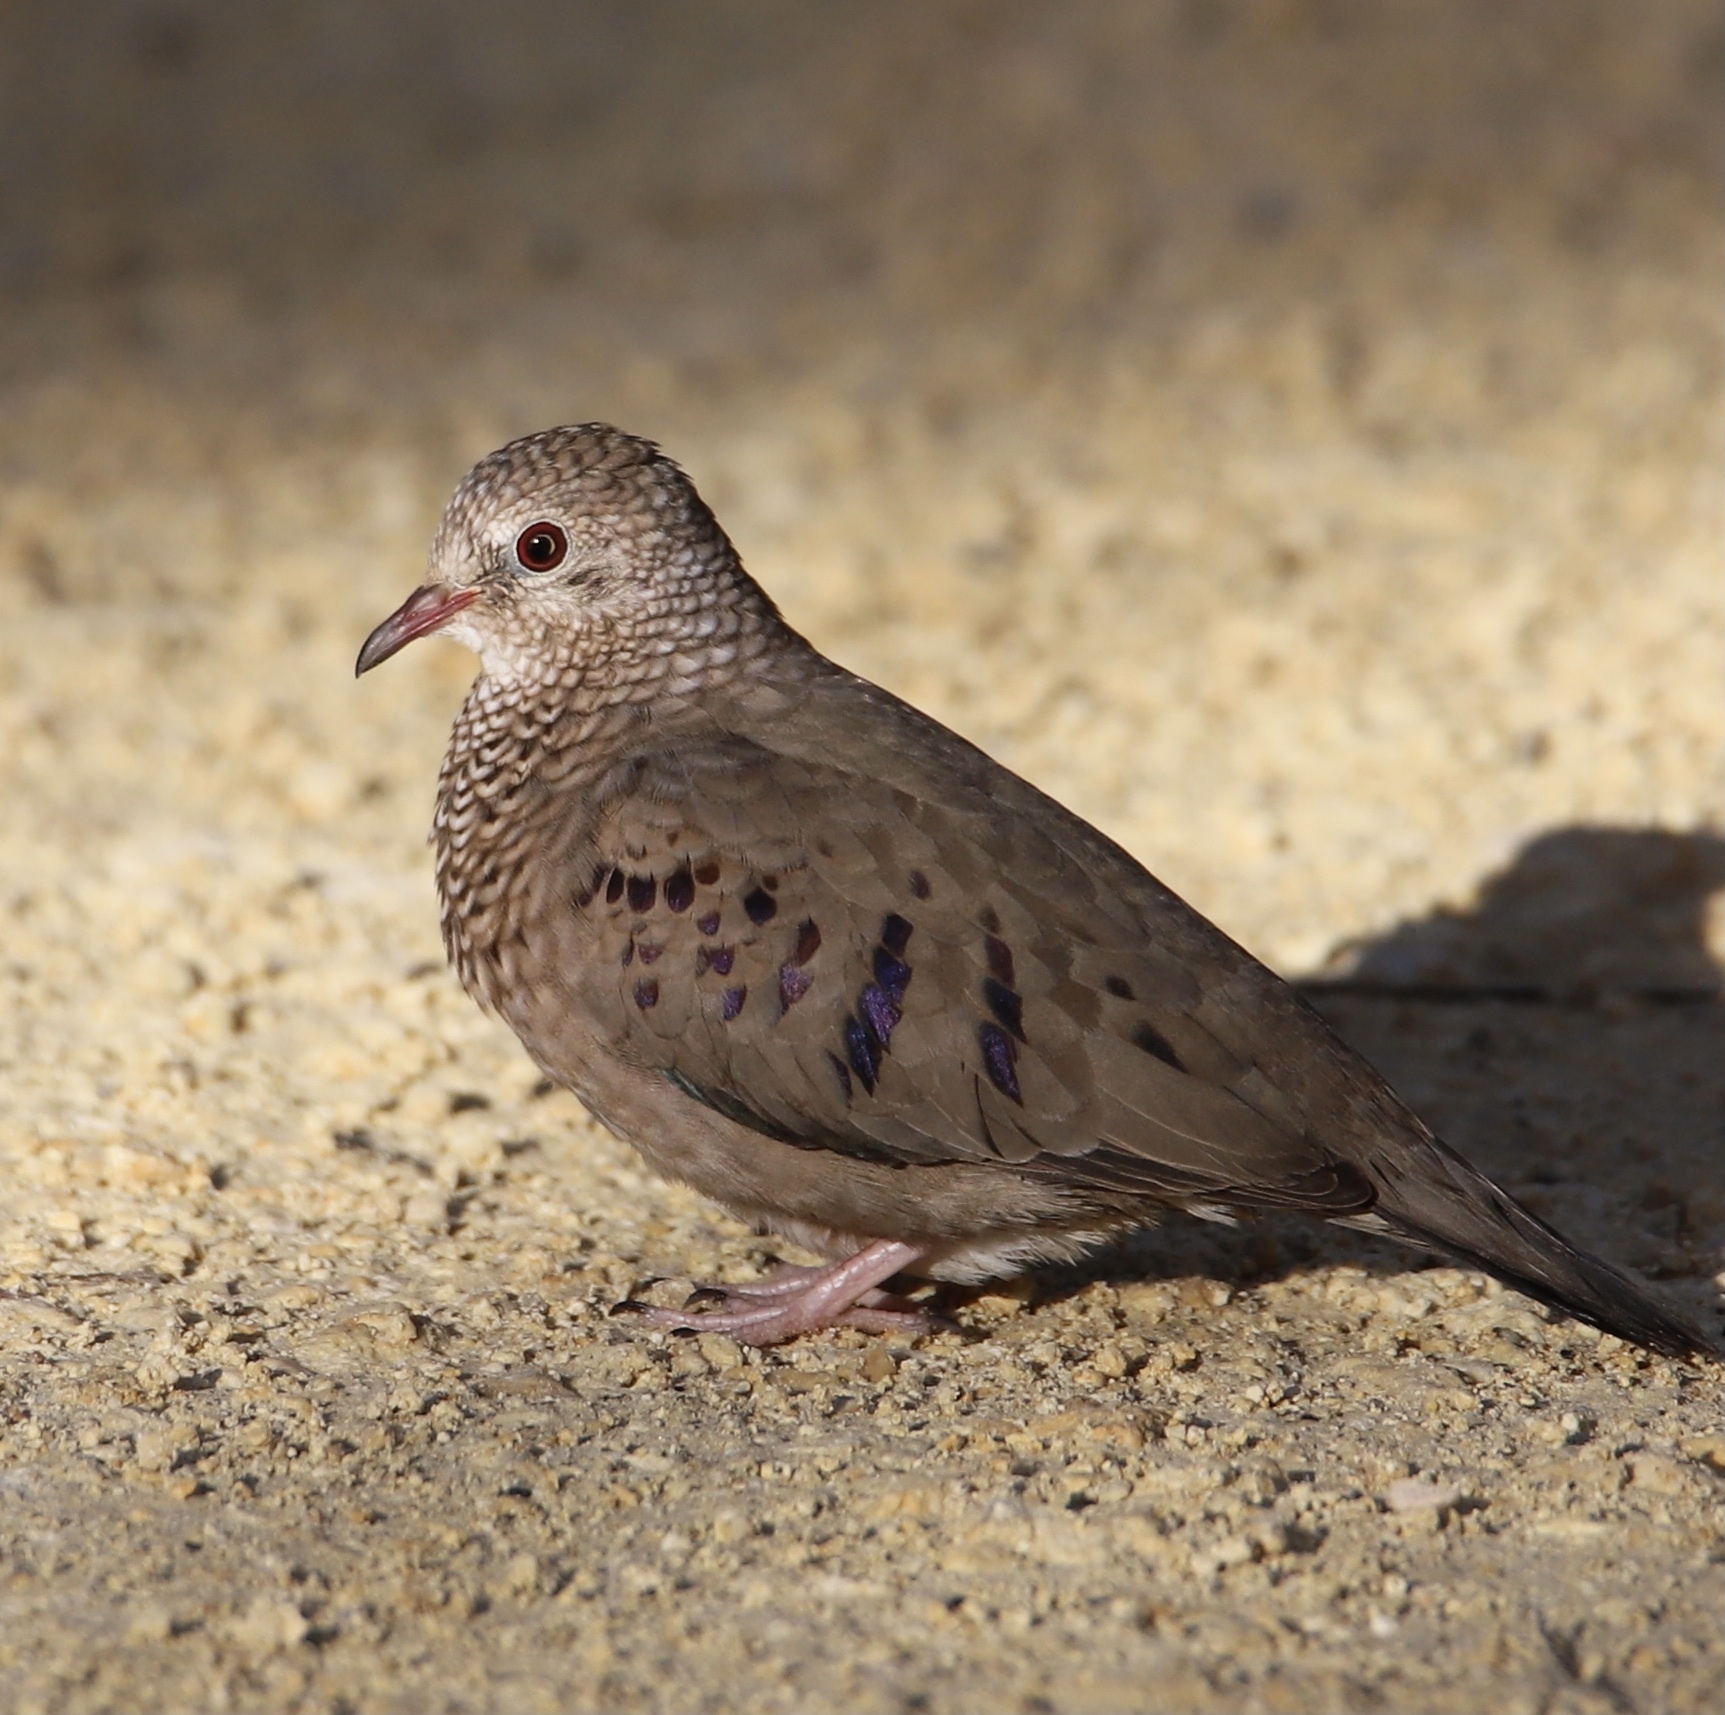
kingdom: Animalia
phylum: Chordata
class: Aves
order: Columbiformes
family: Columbidae
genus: Columbina
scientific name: Columbina passerina
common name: Common ground-dove
